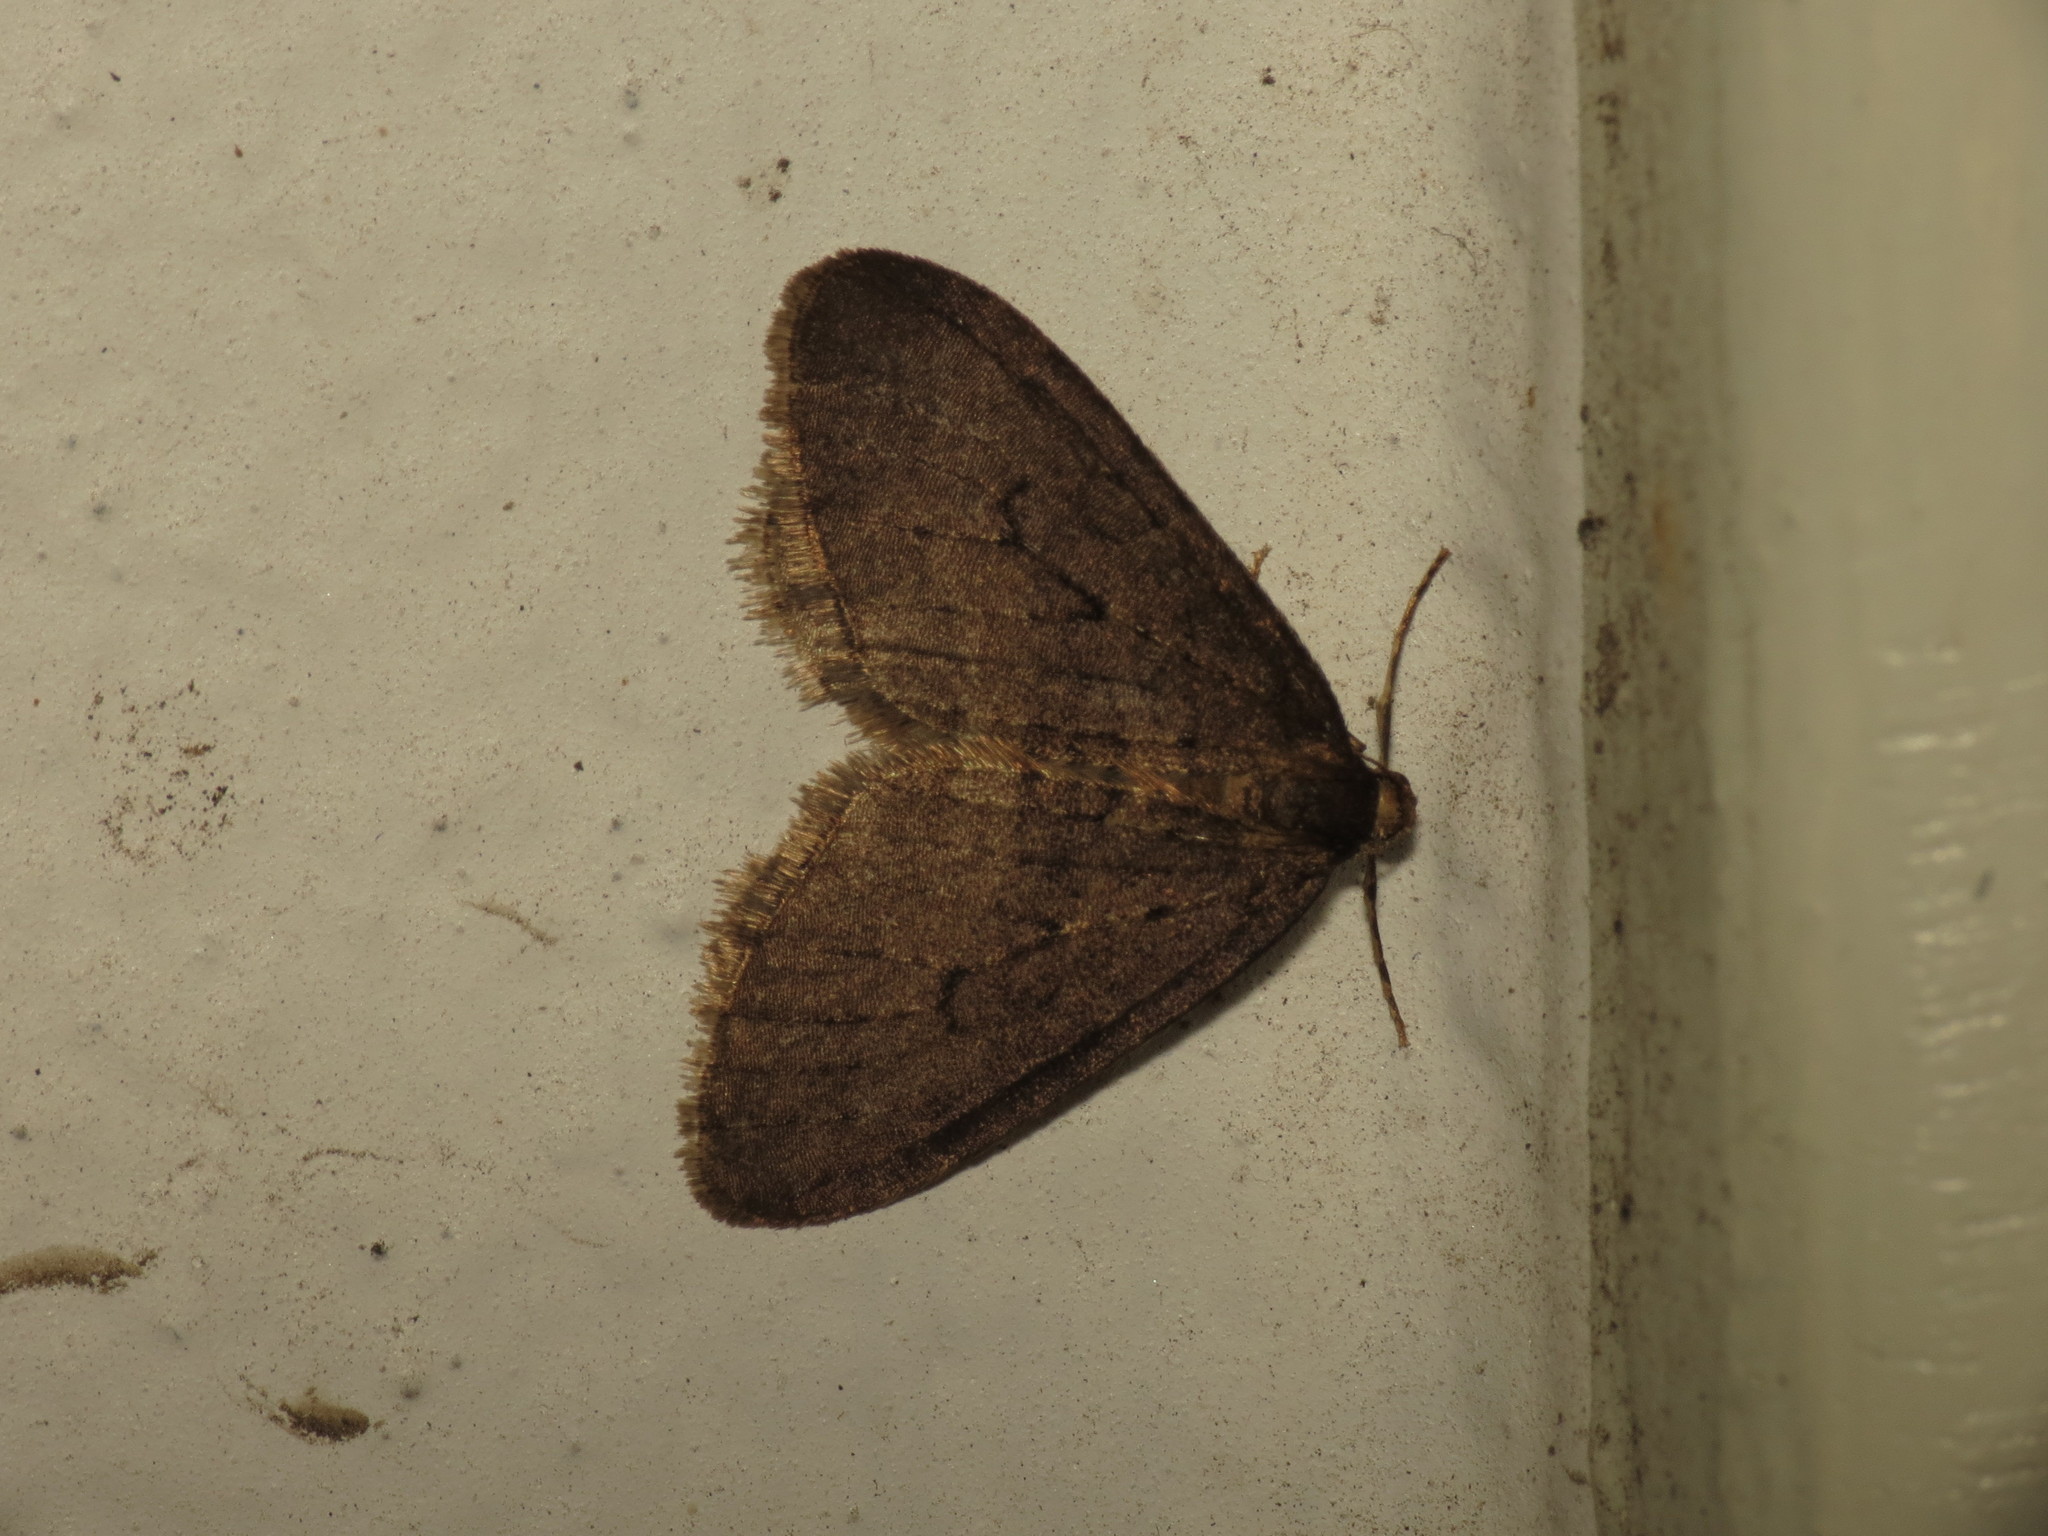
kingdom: Animalia
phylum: Arthropoda
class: Insecta
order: Lepidoptera
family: Geometridae
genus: Operophtera
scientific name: Operophtera brumata
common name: Winter moth
